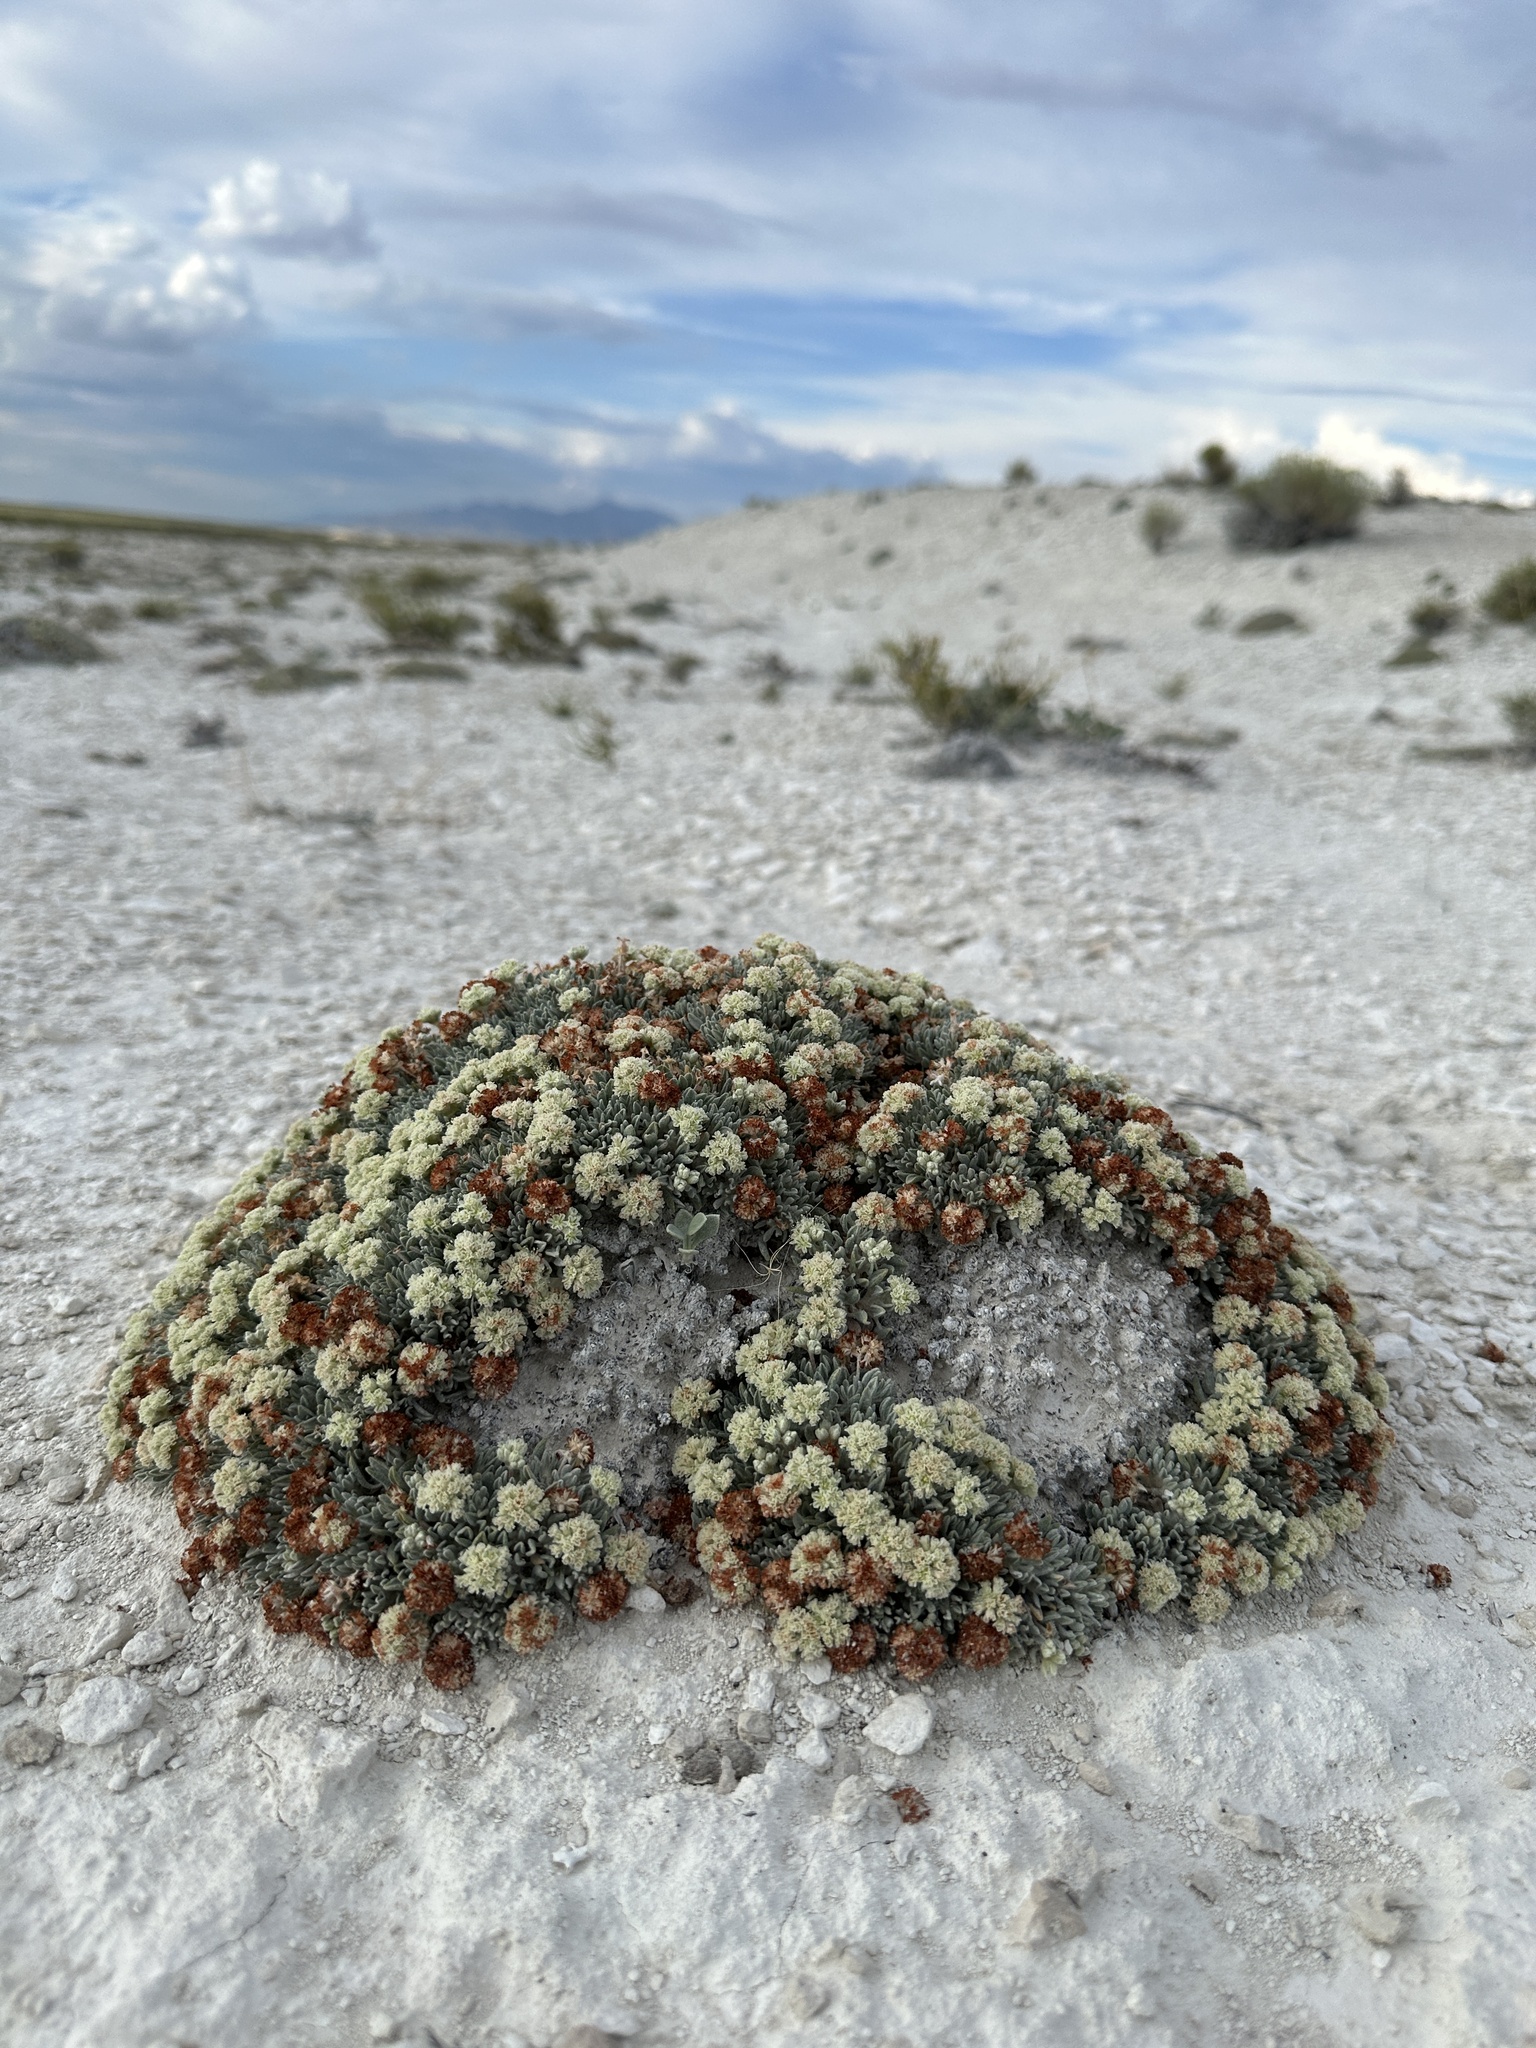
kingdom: Plantae
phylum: Tracheophyta
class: Magnoliopsida
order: Caryophyllales
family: Polygonaceae
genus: Eriogonum
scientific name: Eriogonum shockleyi
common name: Shockley's wild buckwheat
